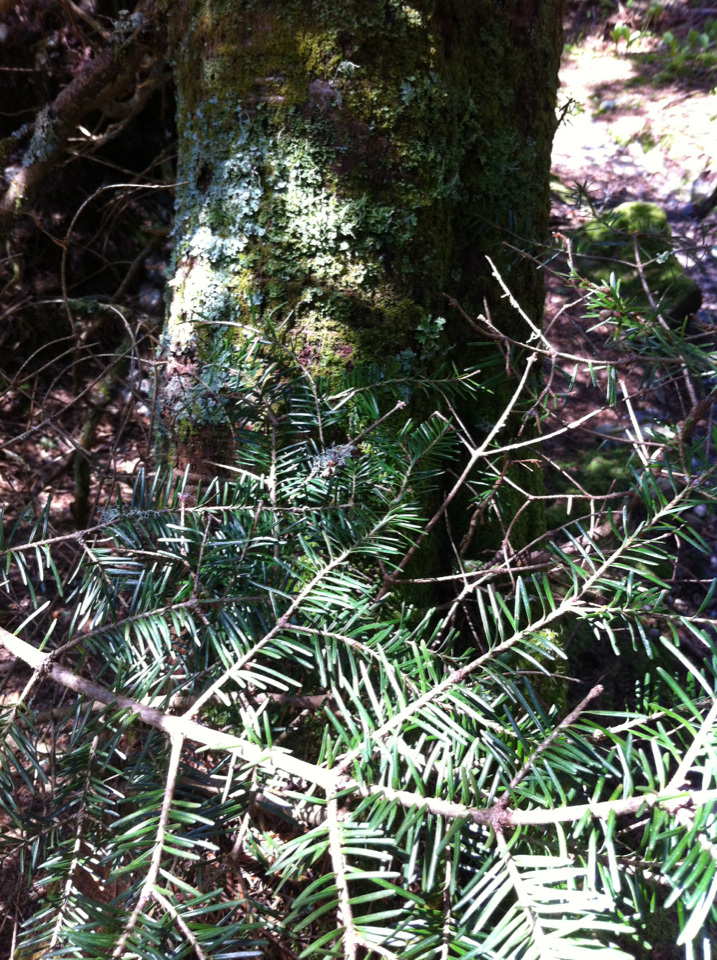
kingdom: Plantae
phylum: Tracheophyta
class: Pinopsida
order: Pinales
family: Pinaceae
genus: Abies
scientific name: Abies balsamea
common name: Balsam fir
